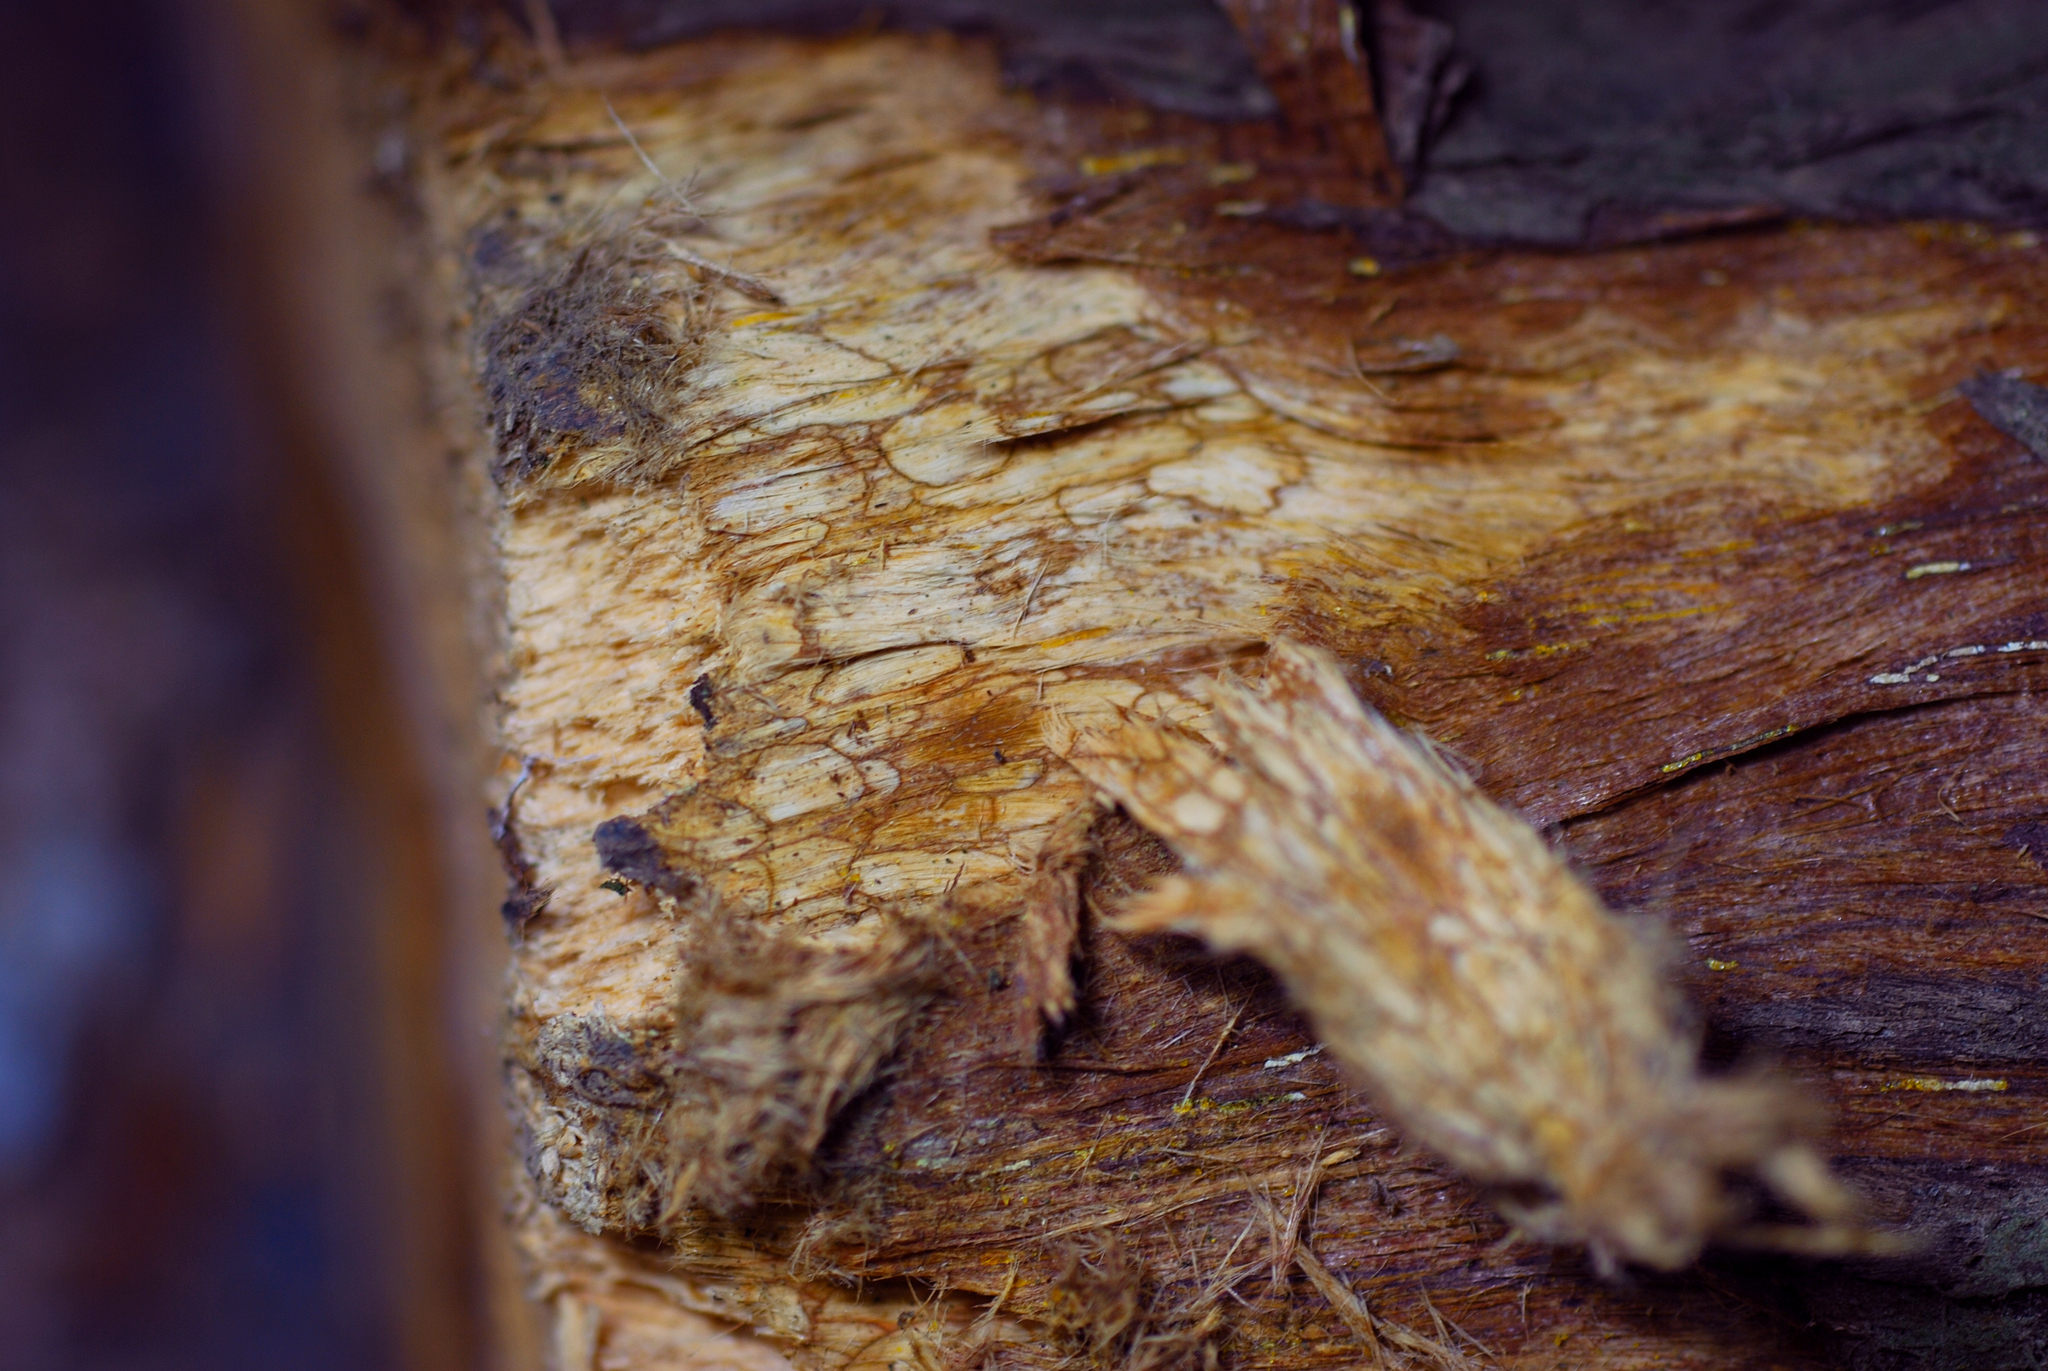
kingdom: Fungi
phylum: Basidiomycota
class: Agaricomycetes
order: Hymenochaetales
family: Hymenochaetaceae
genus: Pyrrhoderma
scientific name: Pyrrhoderma noxium
